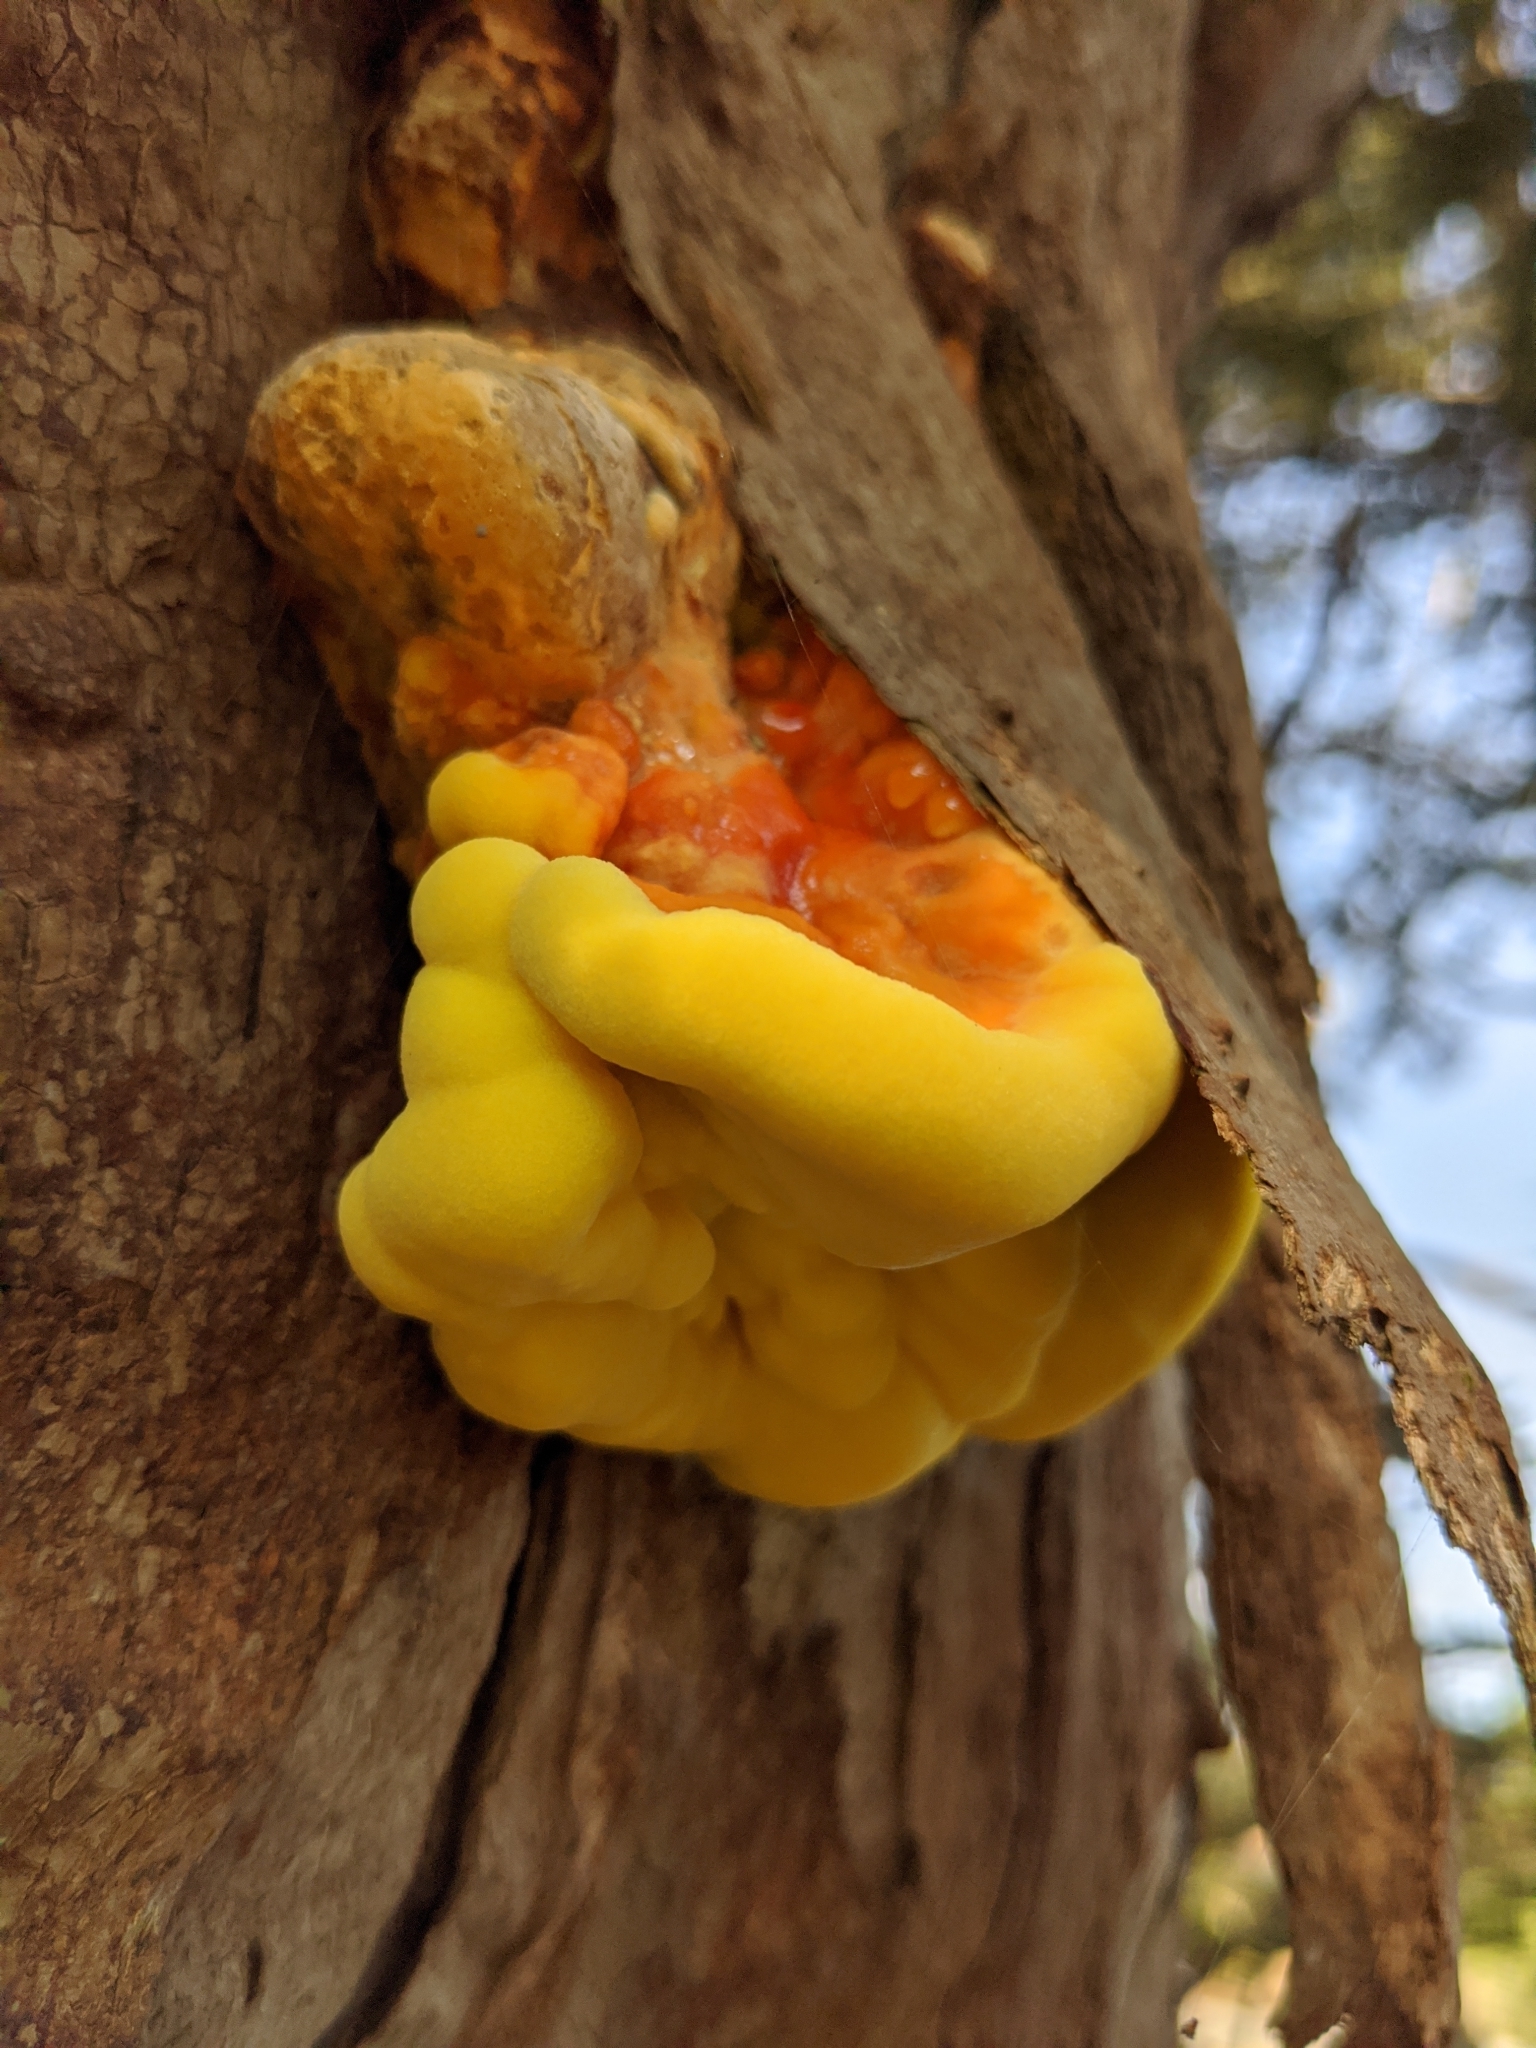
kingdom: Fungi
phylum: Basidiomycota
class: Agaricomycetes
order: Polyporales
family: Laetiporaceae
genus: Laetiporus
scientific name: Laetiporus gilbertsonii
